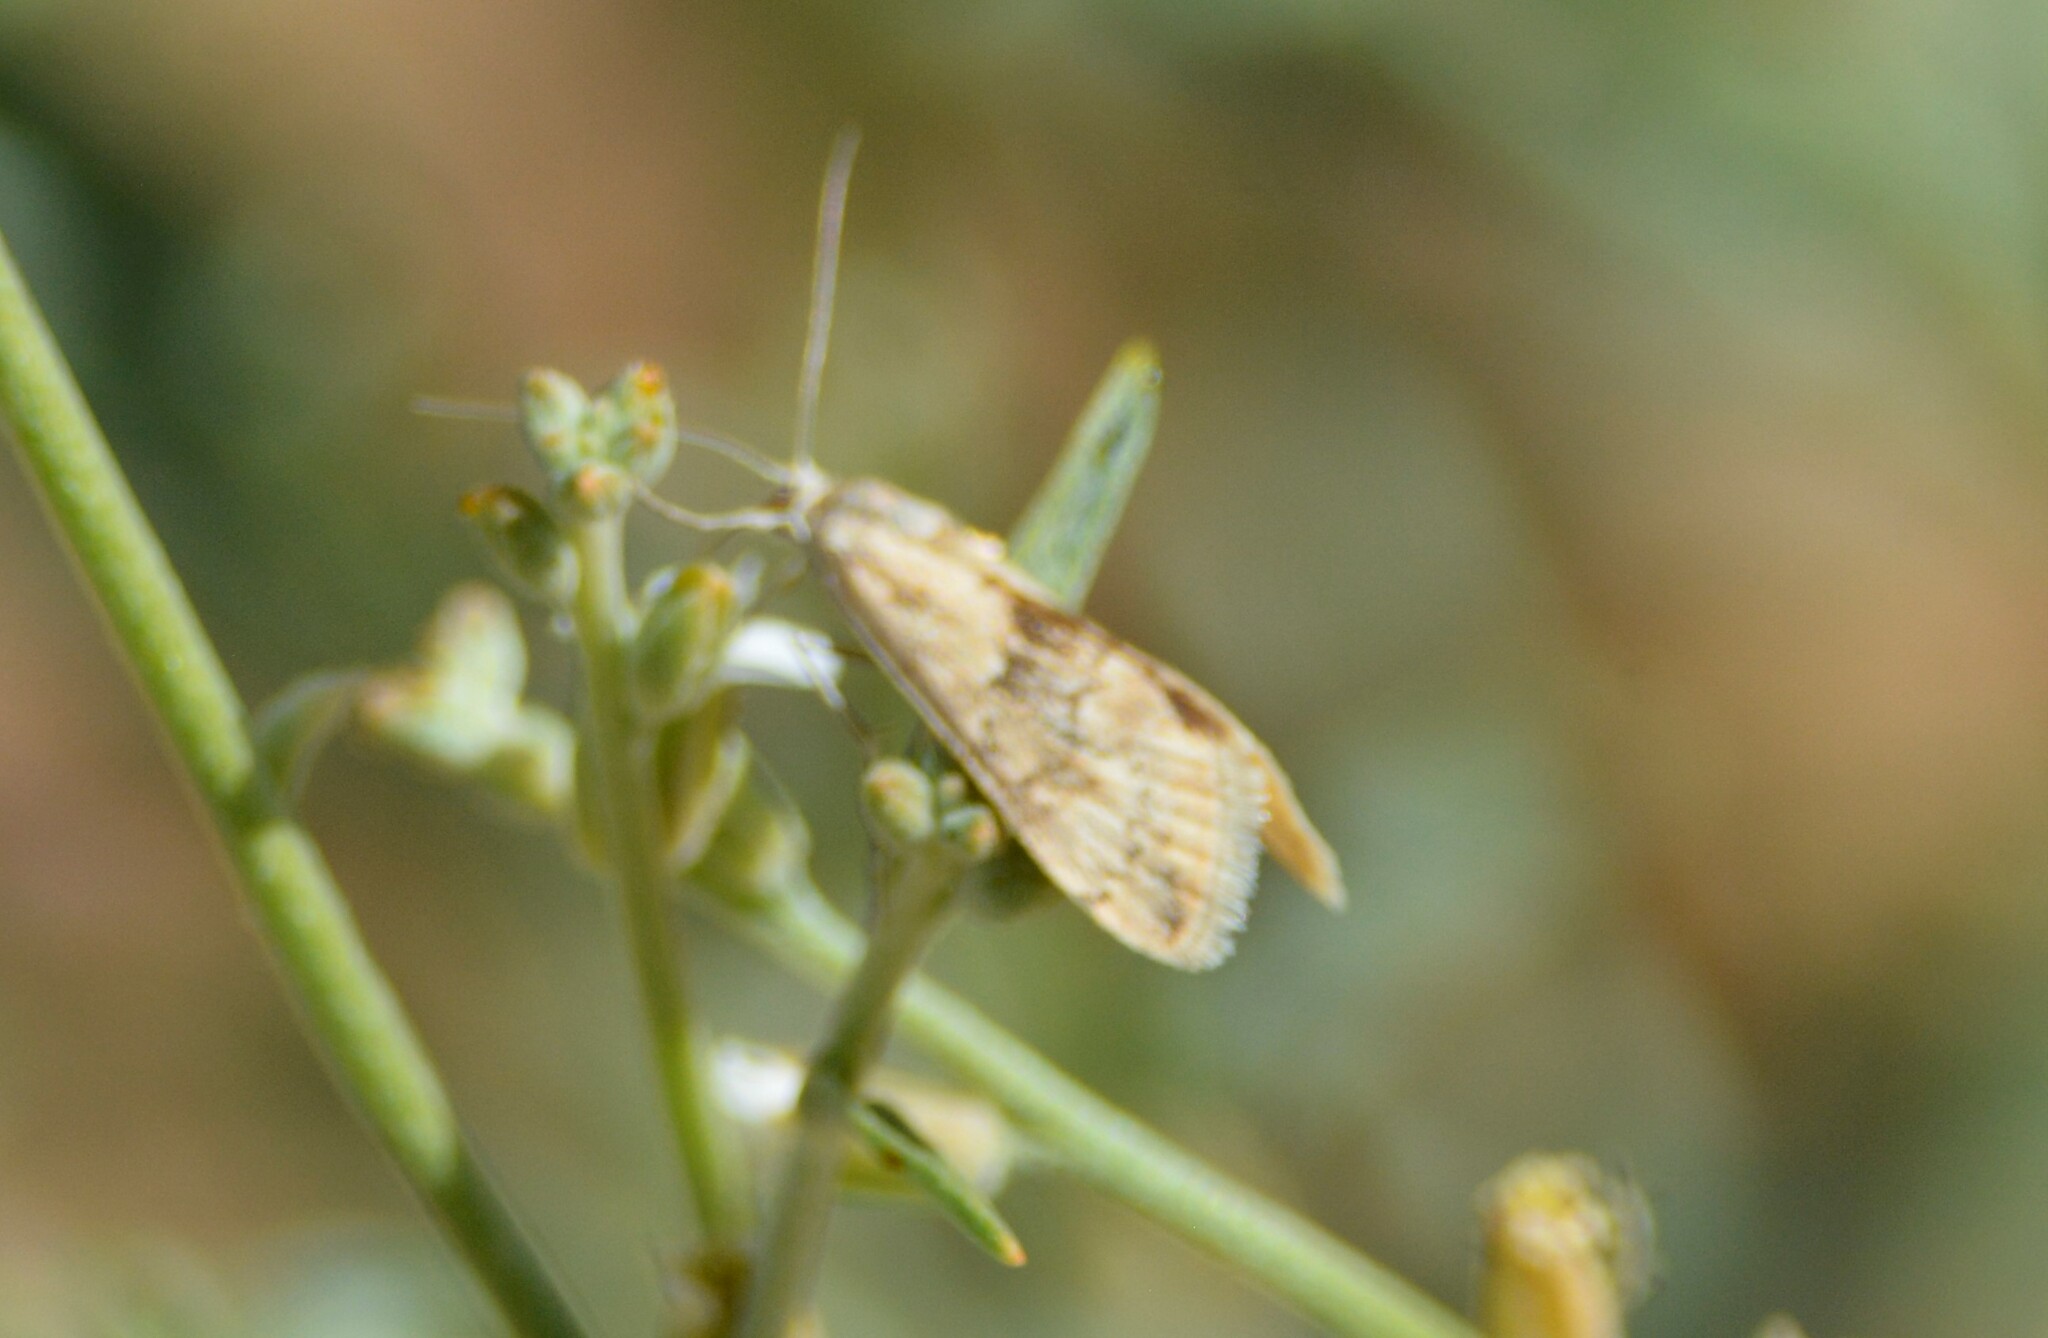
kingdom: Animalia
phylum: Arthropoda
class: Insecta
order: Lepidoptera
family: Crambidae
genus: Cornifrons
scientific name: Cornifrons ulceratalis
